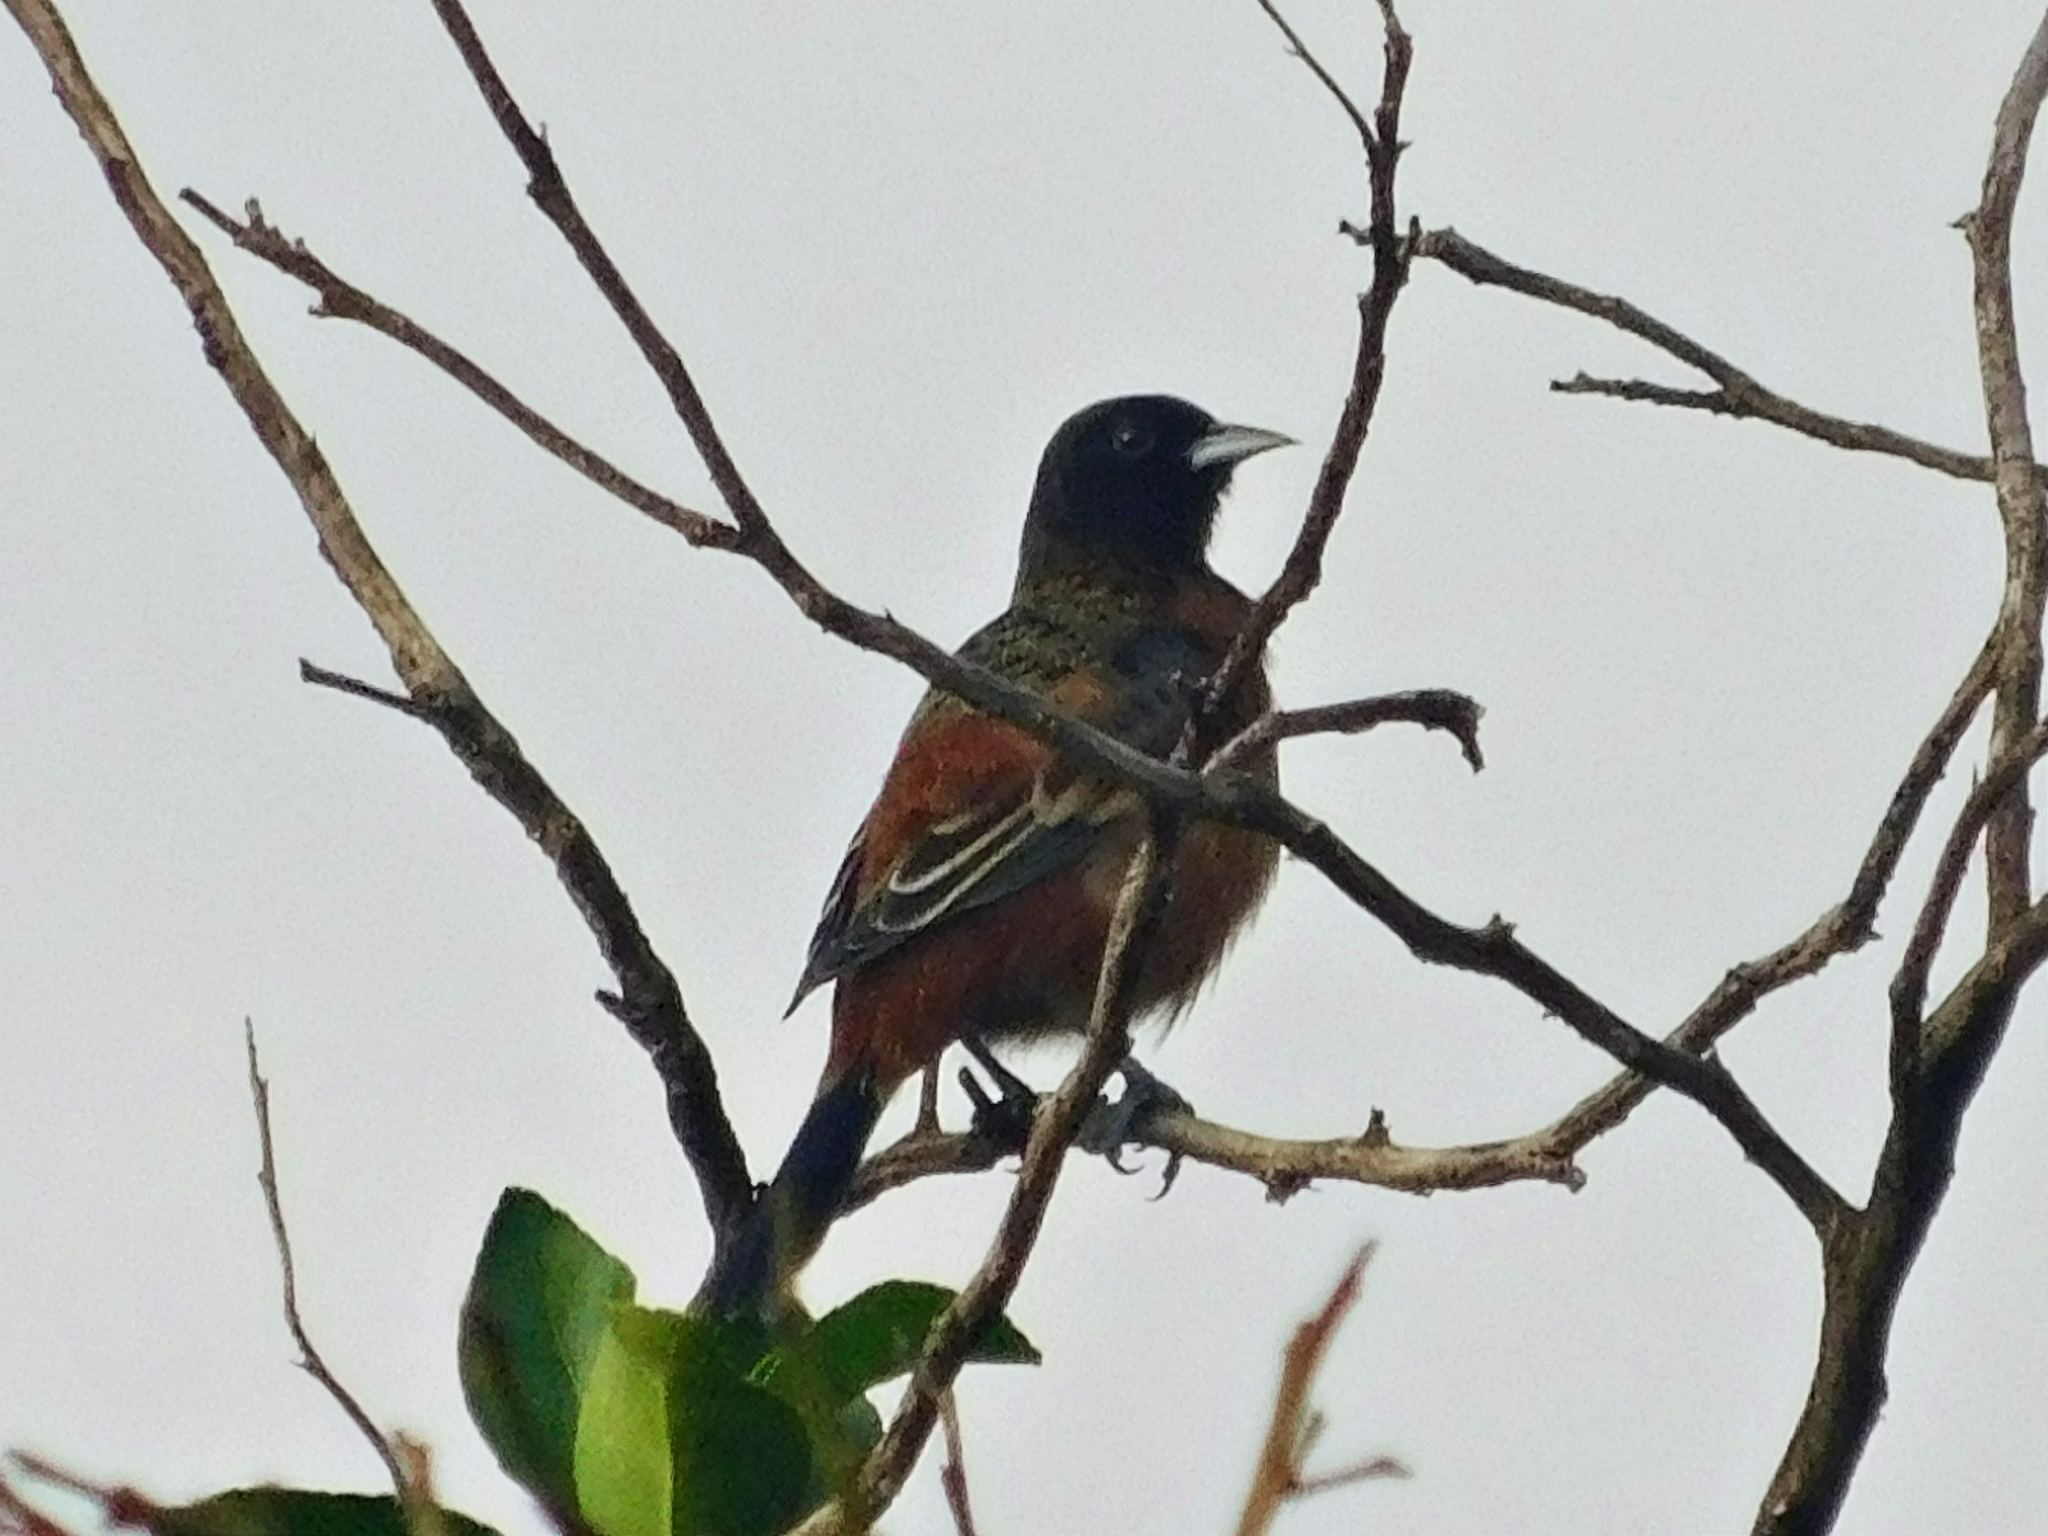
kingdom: Animalia
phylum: Chordata
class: Aves
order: Passeriformes
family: Icteridae
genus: Icterus
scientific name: Icterus spurius
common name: Orchard oriole
